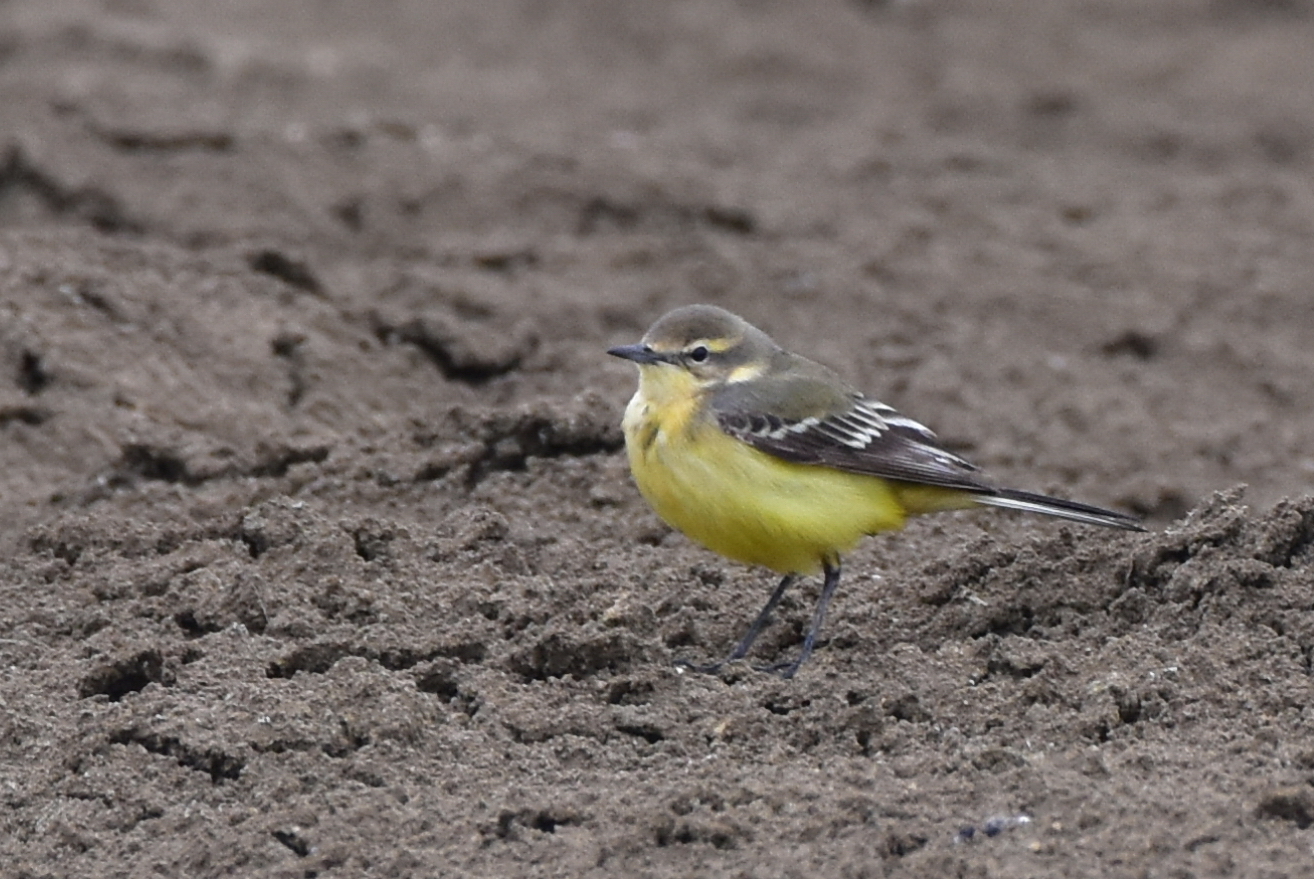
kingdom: Animalia
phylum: Chordata
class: Aves
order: Passeriformes
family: Motacillidae
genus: Motacilla
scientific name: Motacilla flava
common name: Western yellow wagtail
